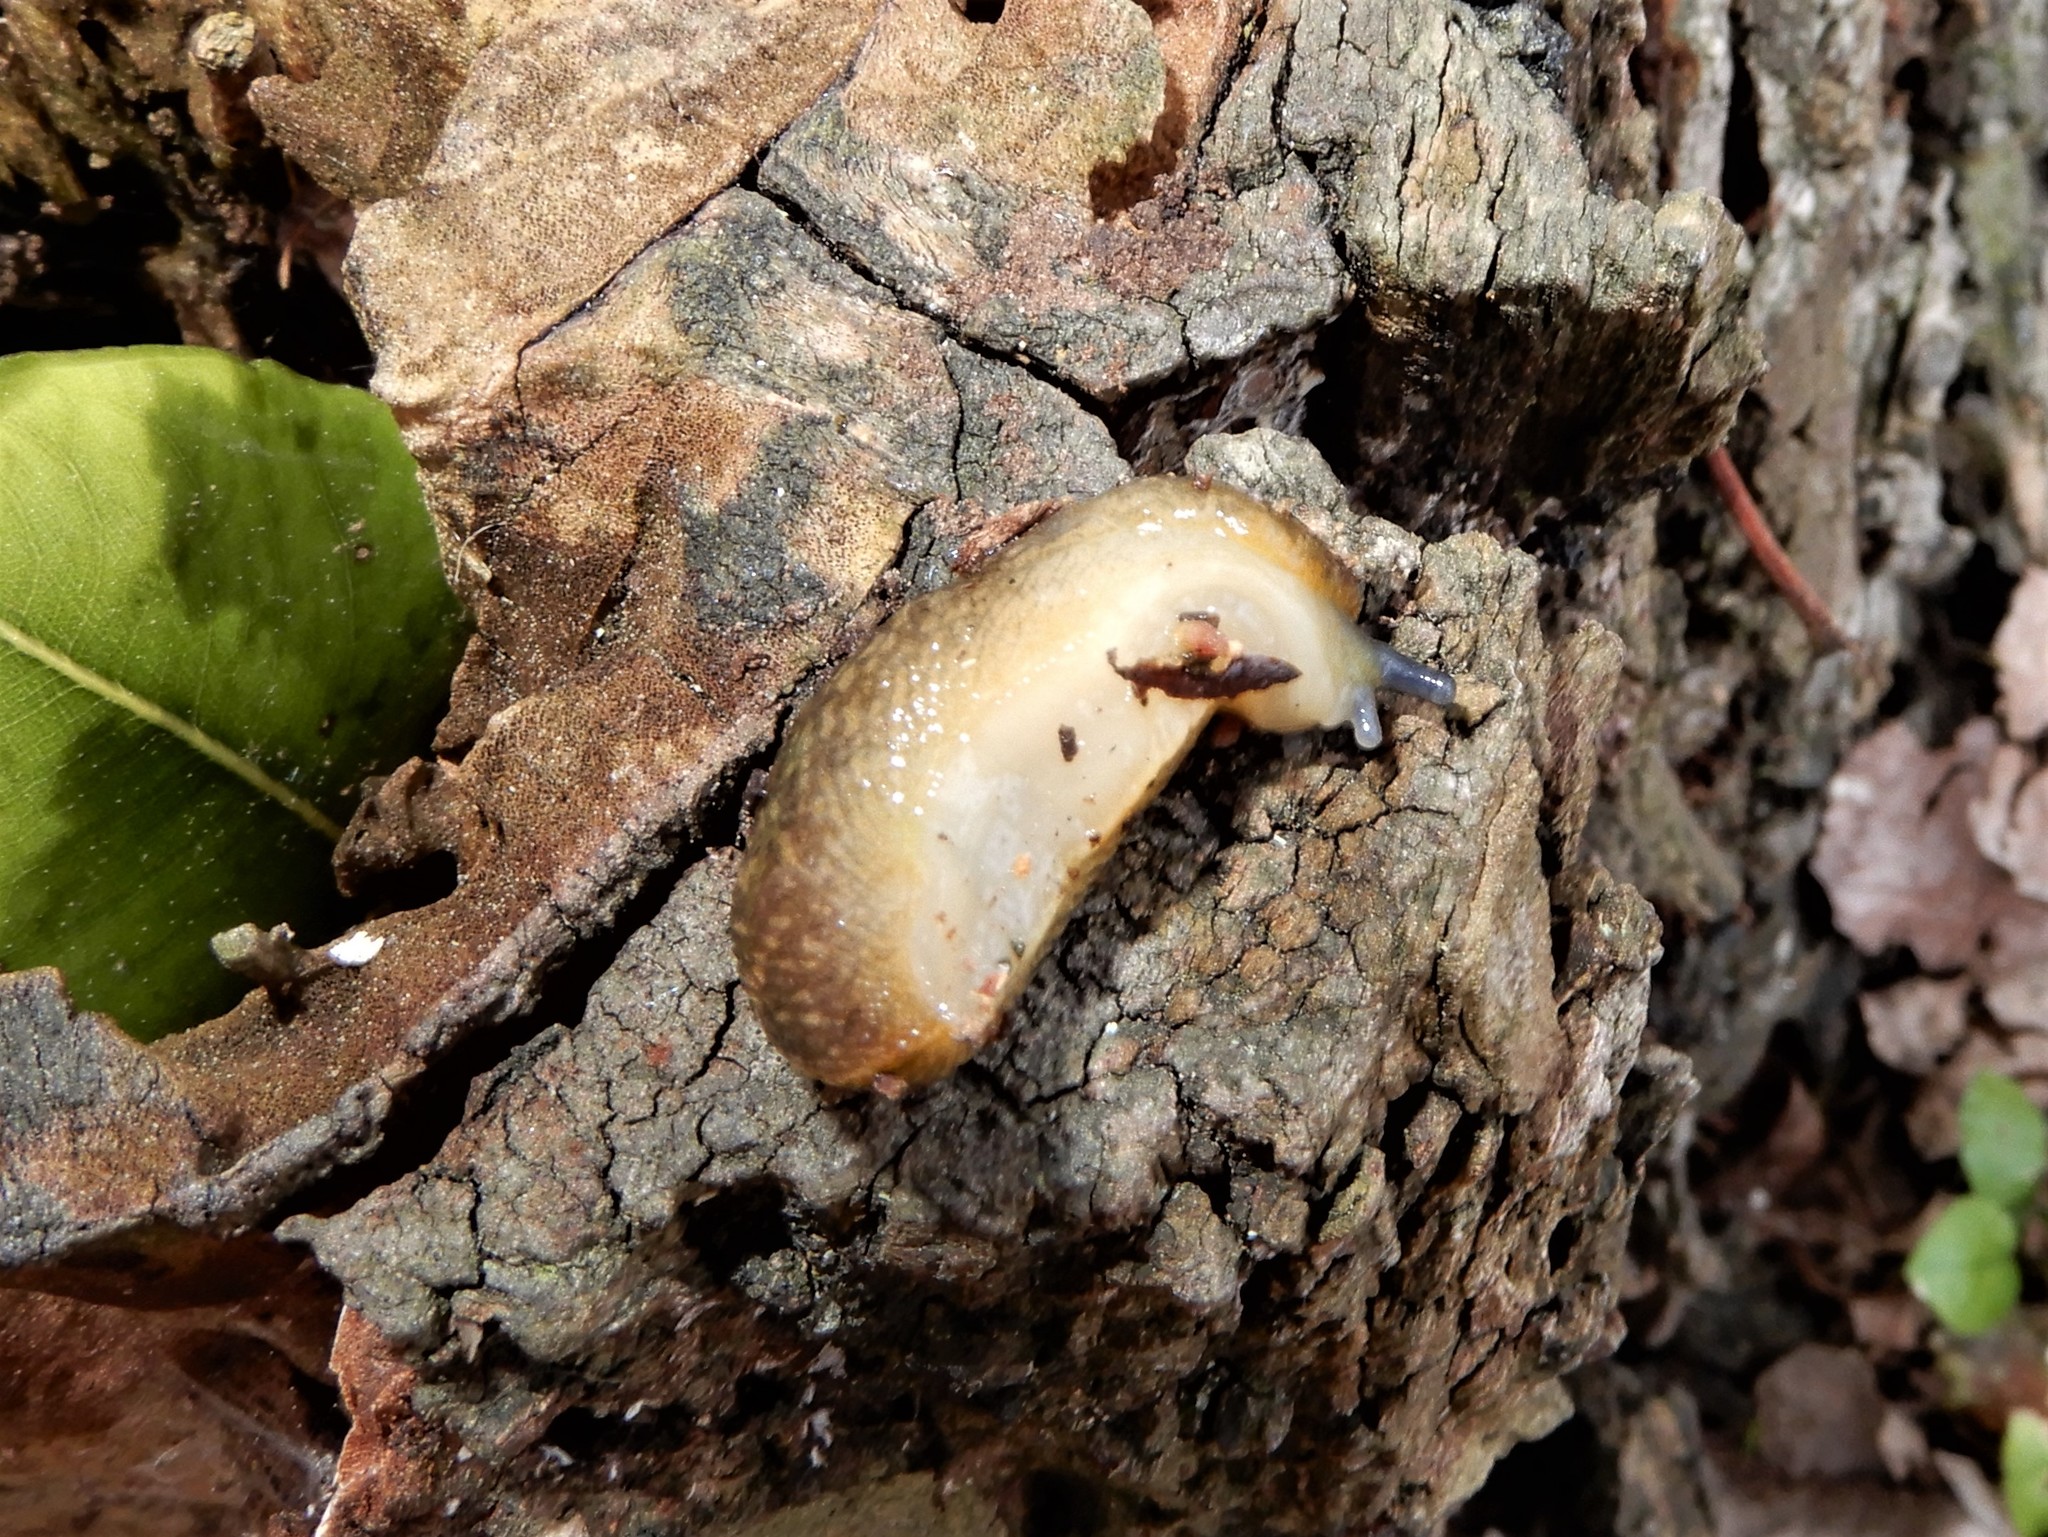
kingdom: Animalia
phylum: Mollusca
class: Gastropoda
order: Stylommatophora
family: Limacidae
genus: Limacus
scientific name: Limacus flavus
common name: Yellow gardenslug
